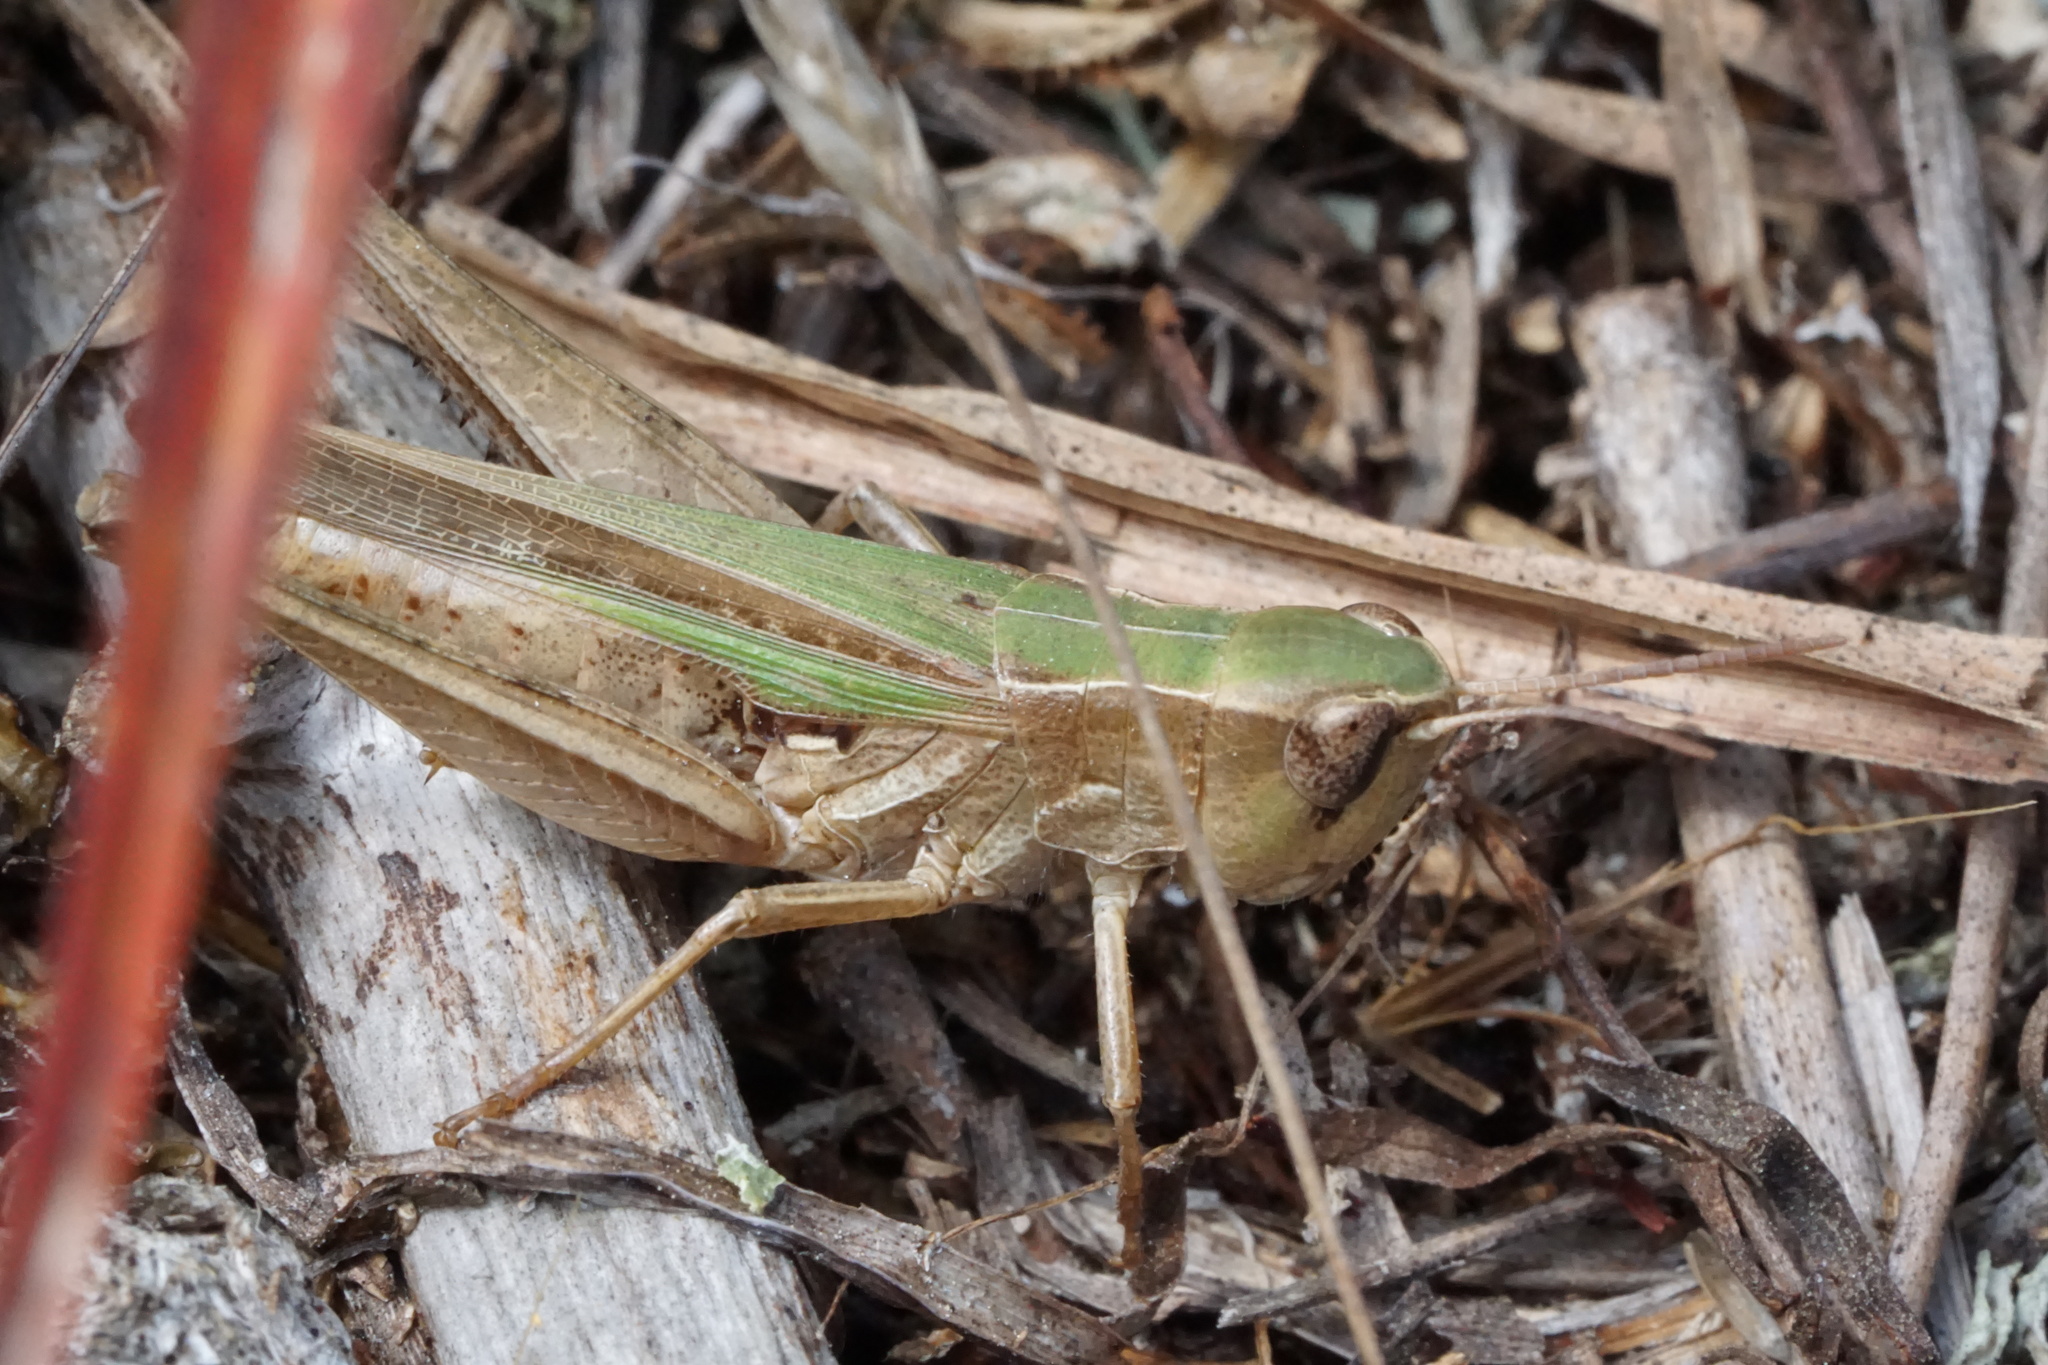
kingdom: Animalia
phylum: Arthropoda
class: Insecta
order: Orthoptera
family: Acrididae
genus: Orphulella
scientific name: Orphulella speciosa
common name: Pasture grasshopper
